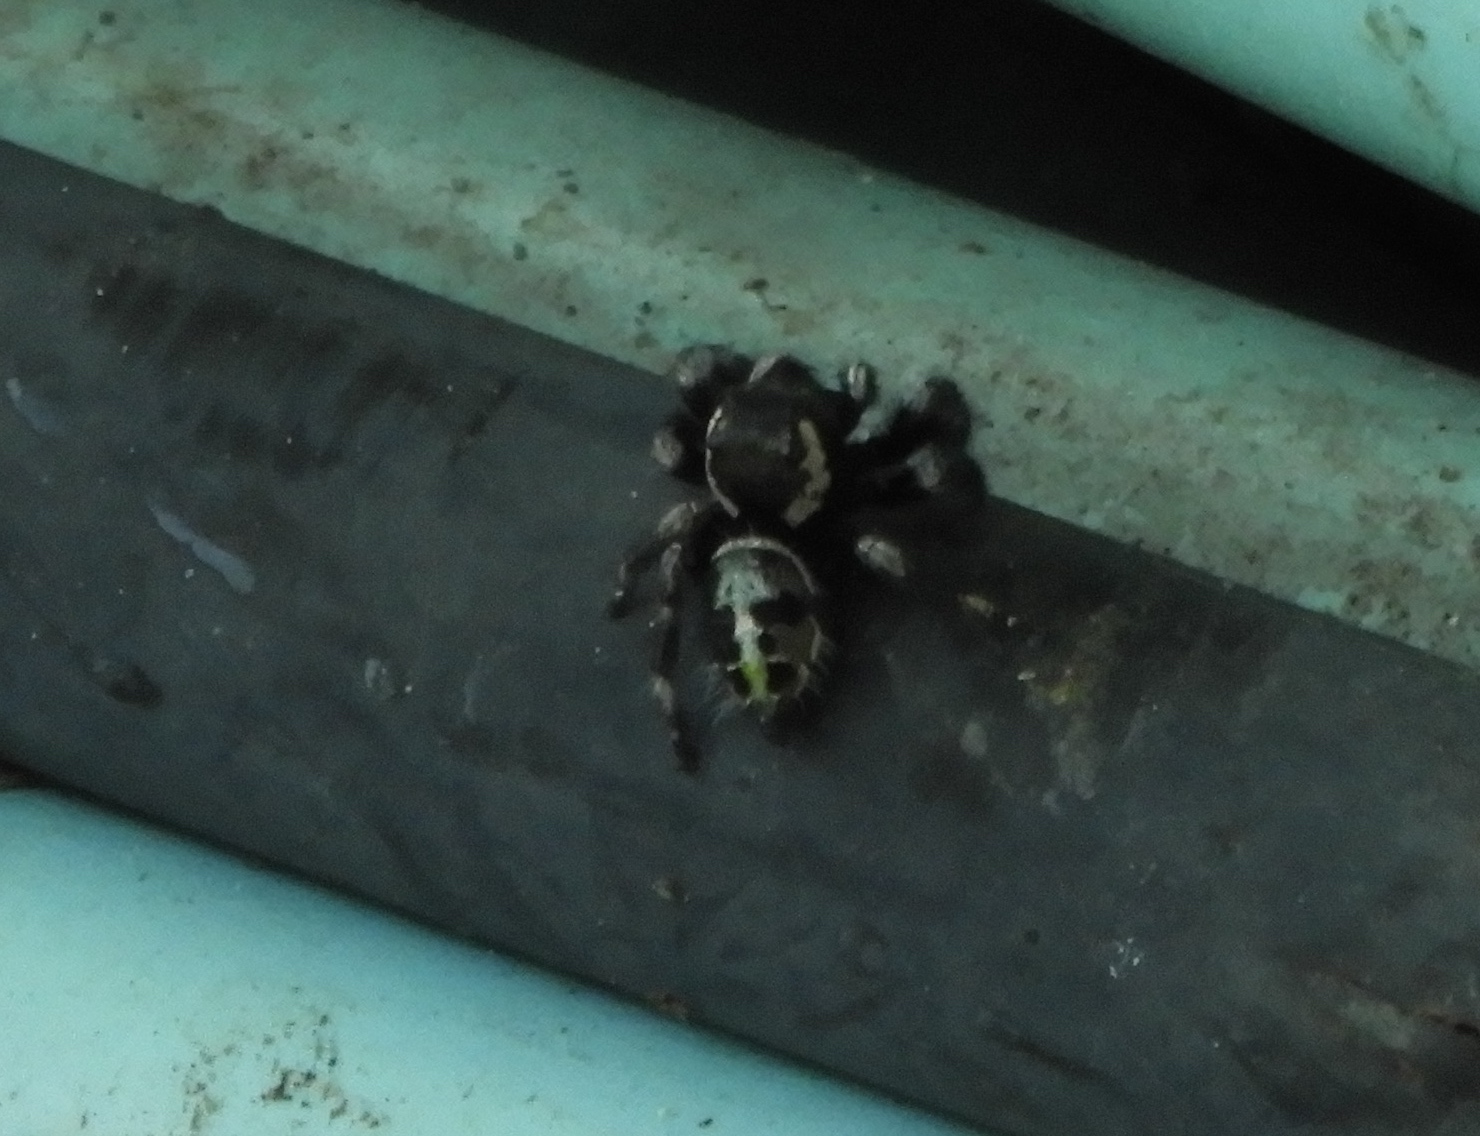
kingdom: Animalia
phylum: Arthropoda
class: Arachnida
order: Araneae
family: Salticidae
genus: Phidippus
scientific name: Phidippus maddisoni
